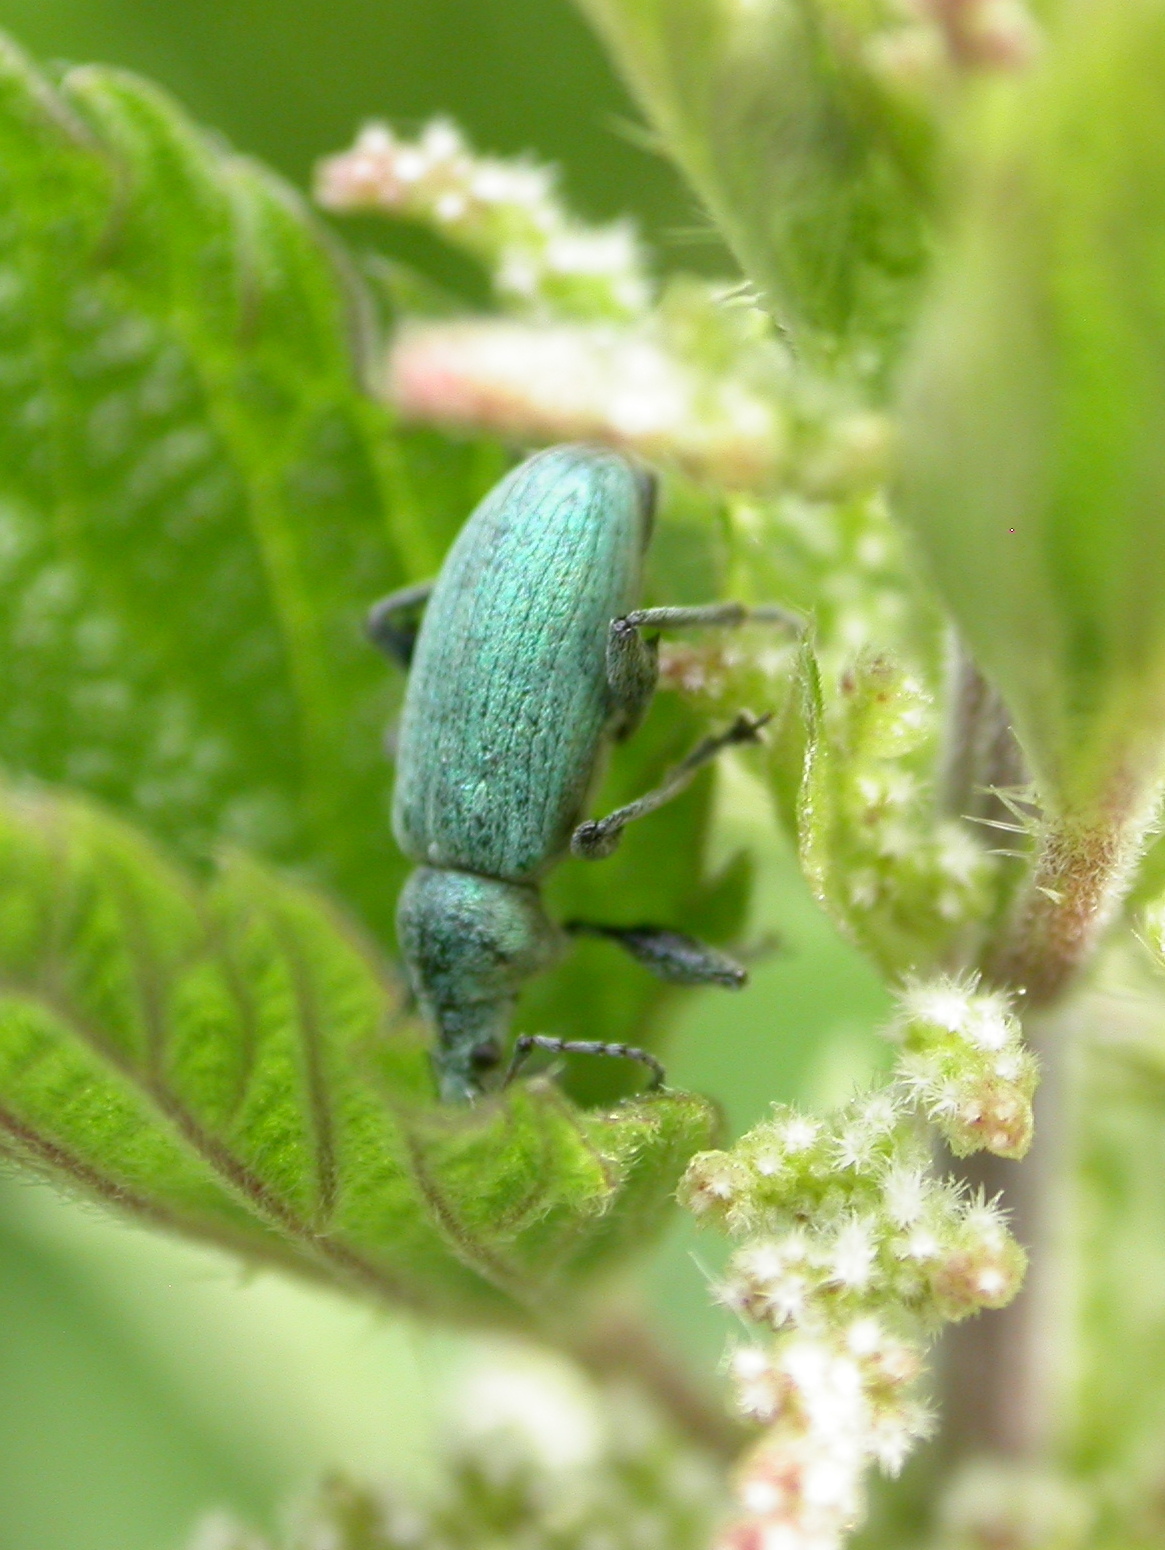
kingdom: Animalia
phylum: Arthropoda
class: Insecta
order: Coleoptera
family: Curculionidae
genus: Phyllobius
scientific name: Phyllobius pomaceus
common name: Green nettle weevil
